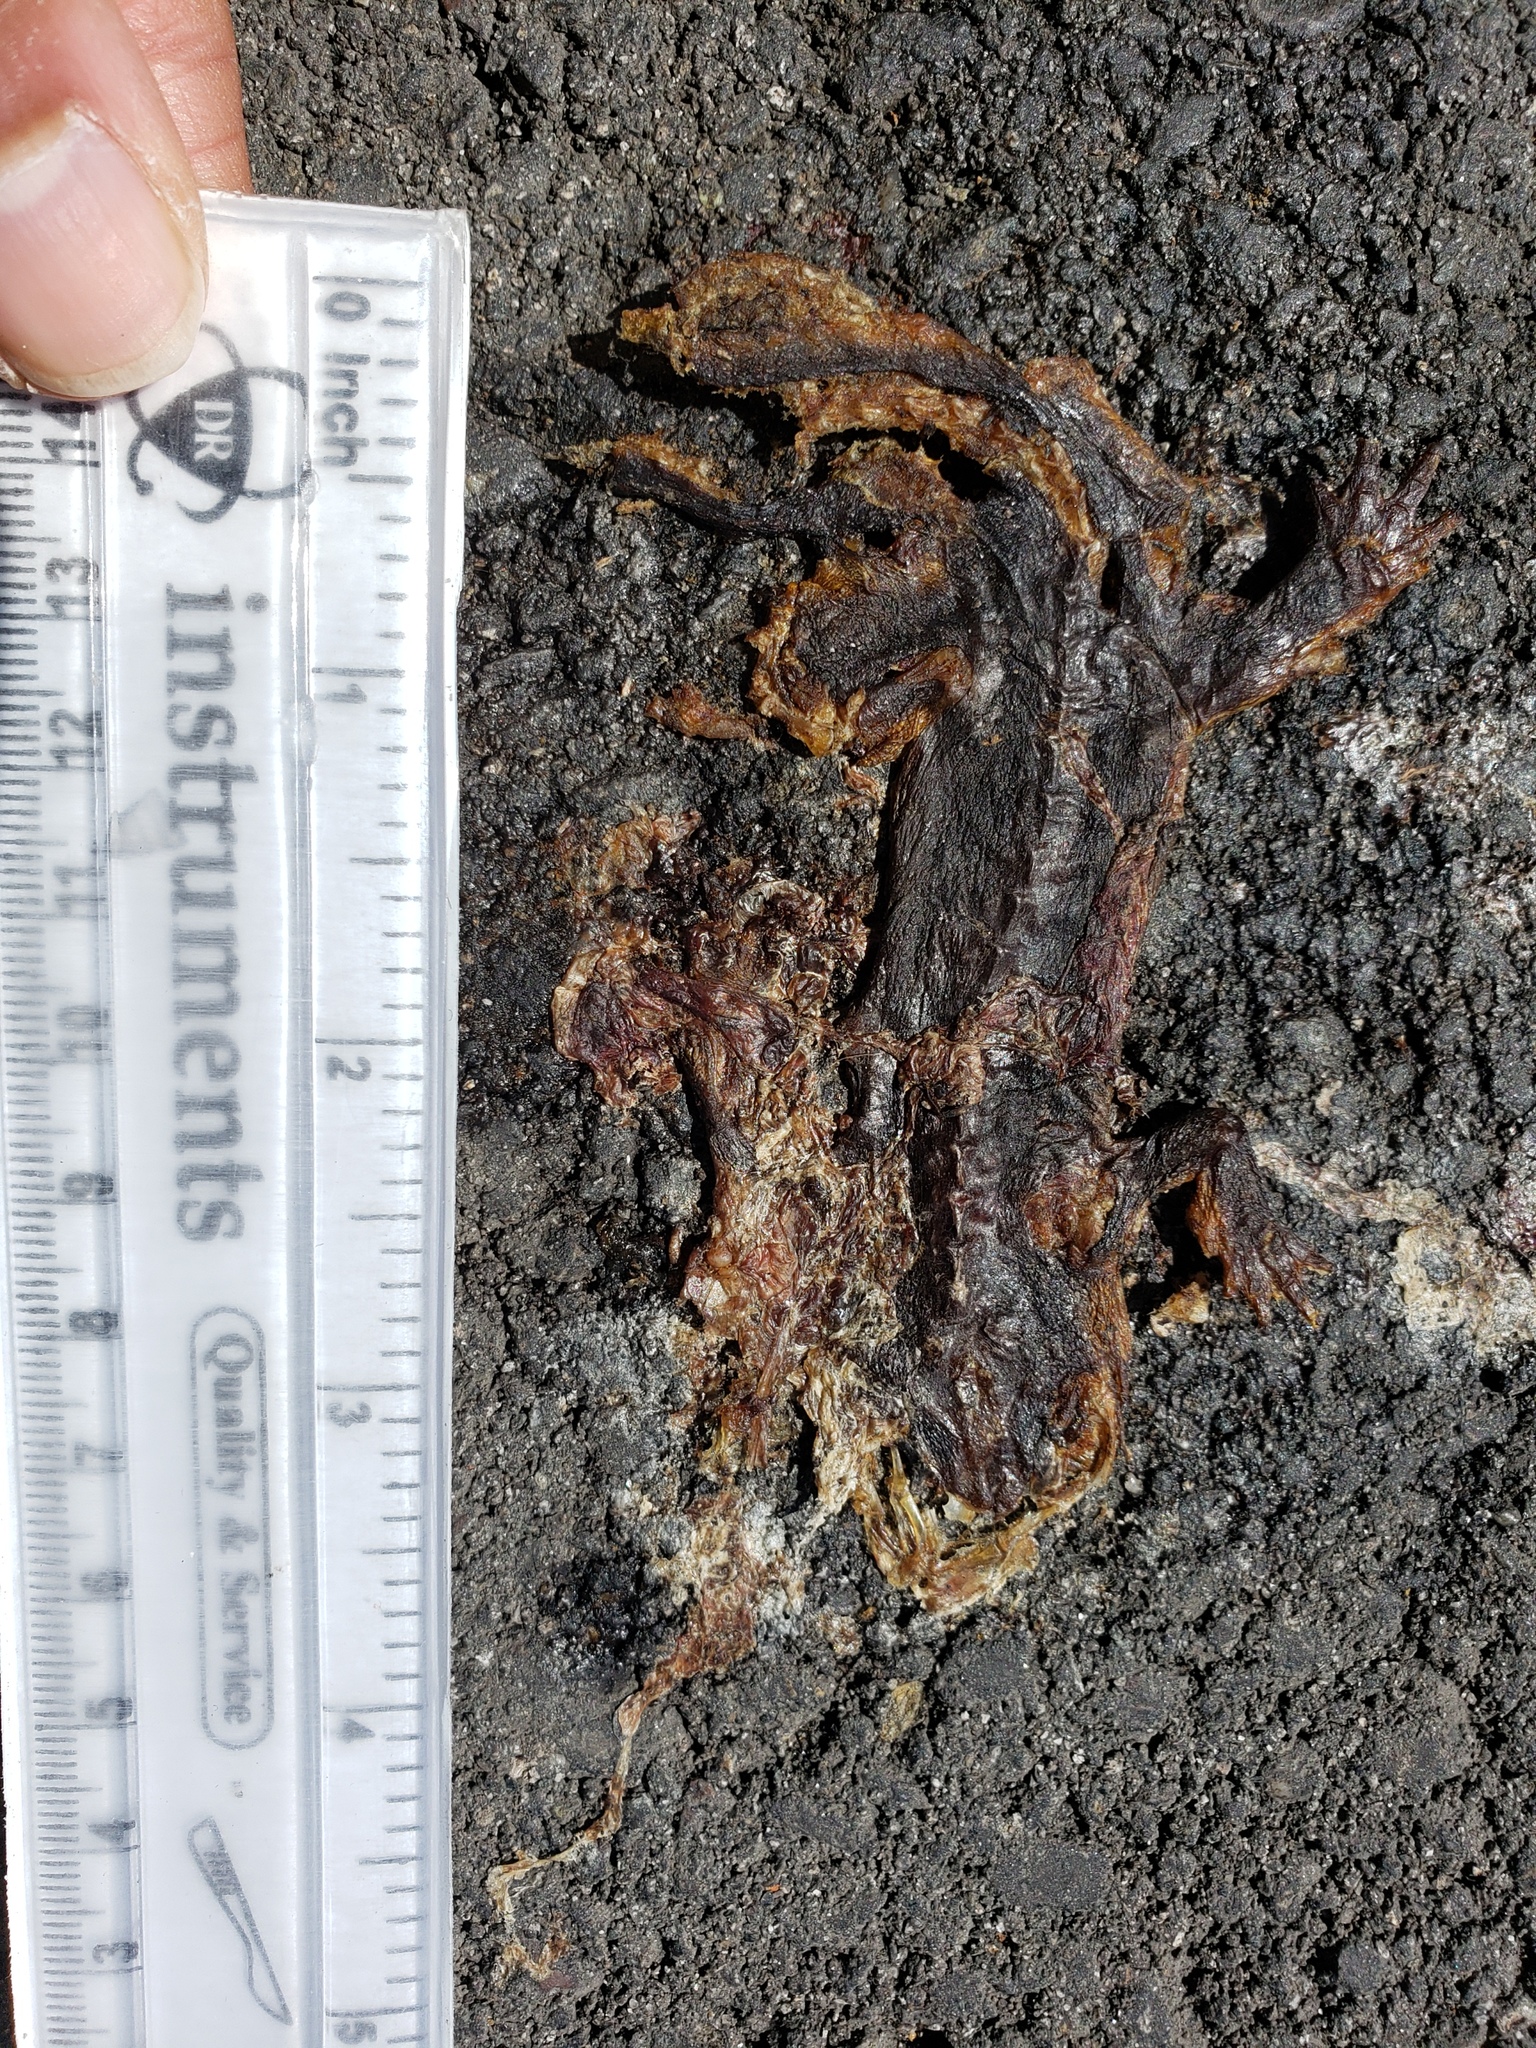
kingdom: Animalia
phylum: Chordata
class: Amphibia
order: Caudata
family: Salamandridae
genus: Taricha
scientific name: Taricha
